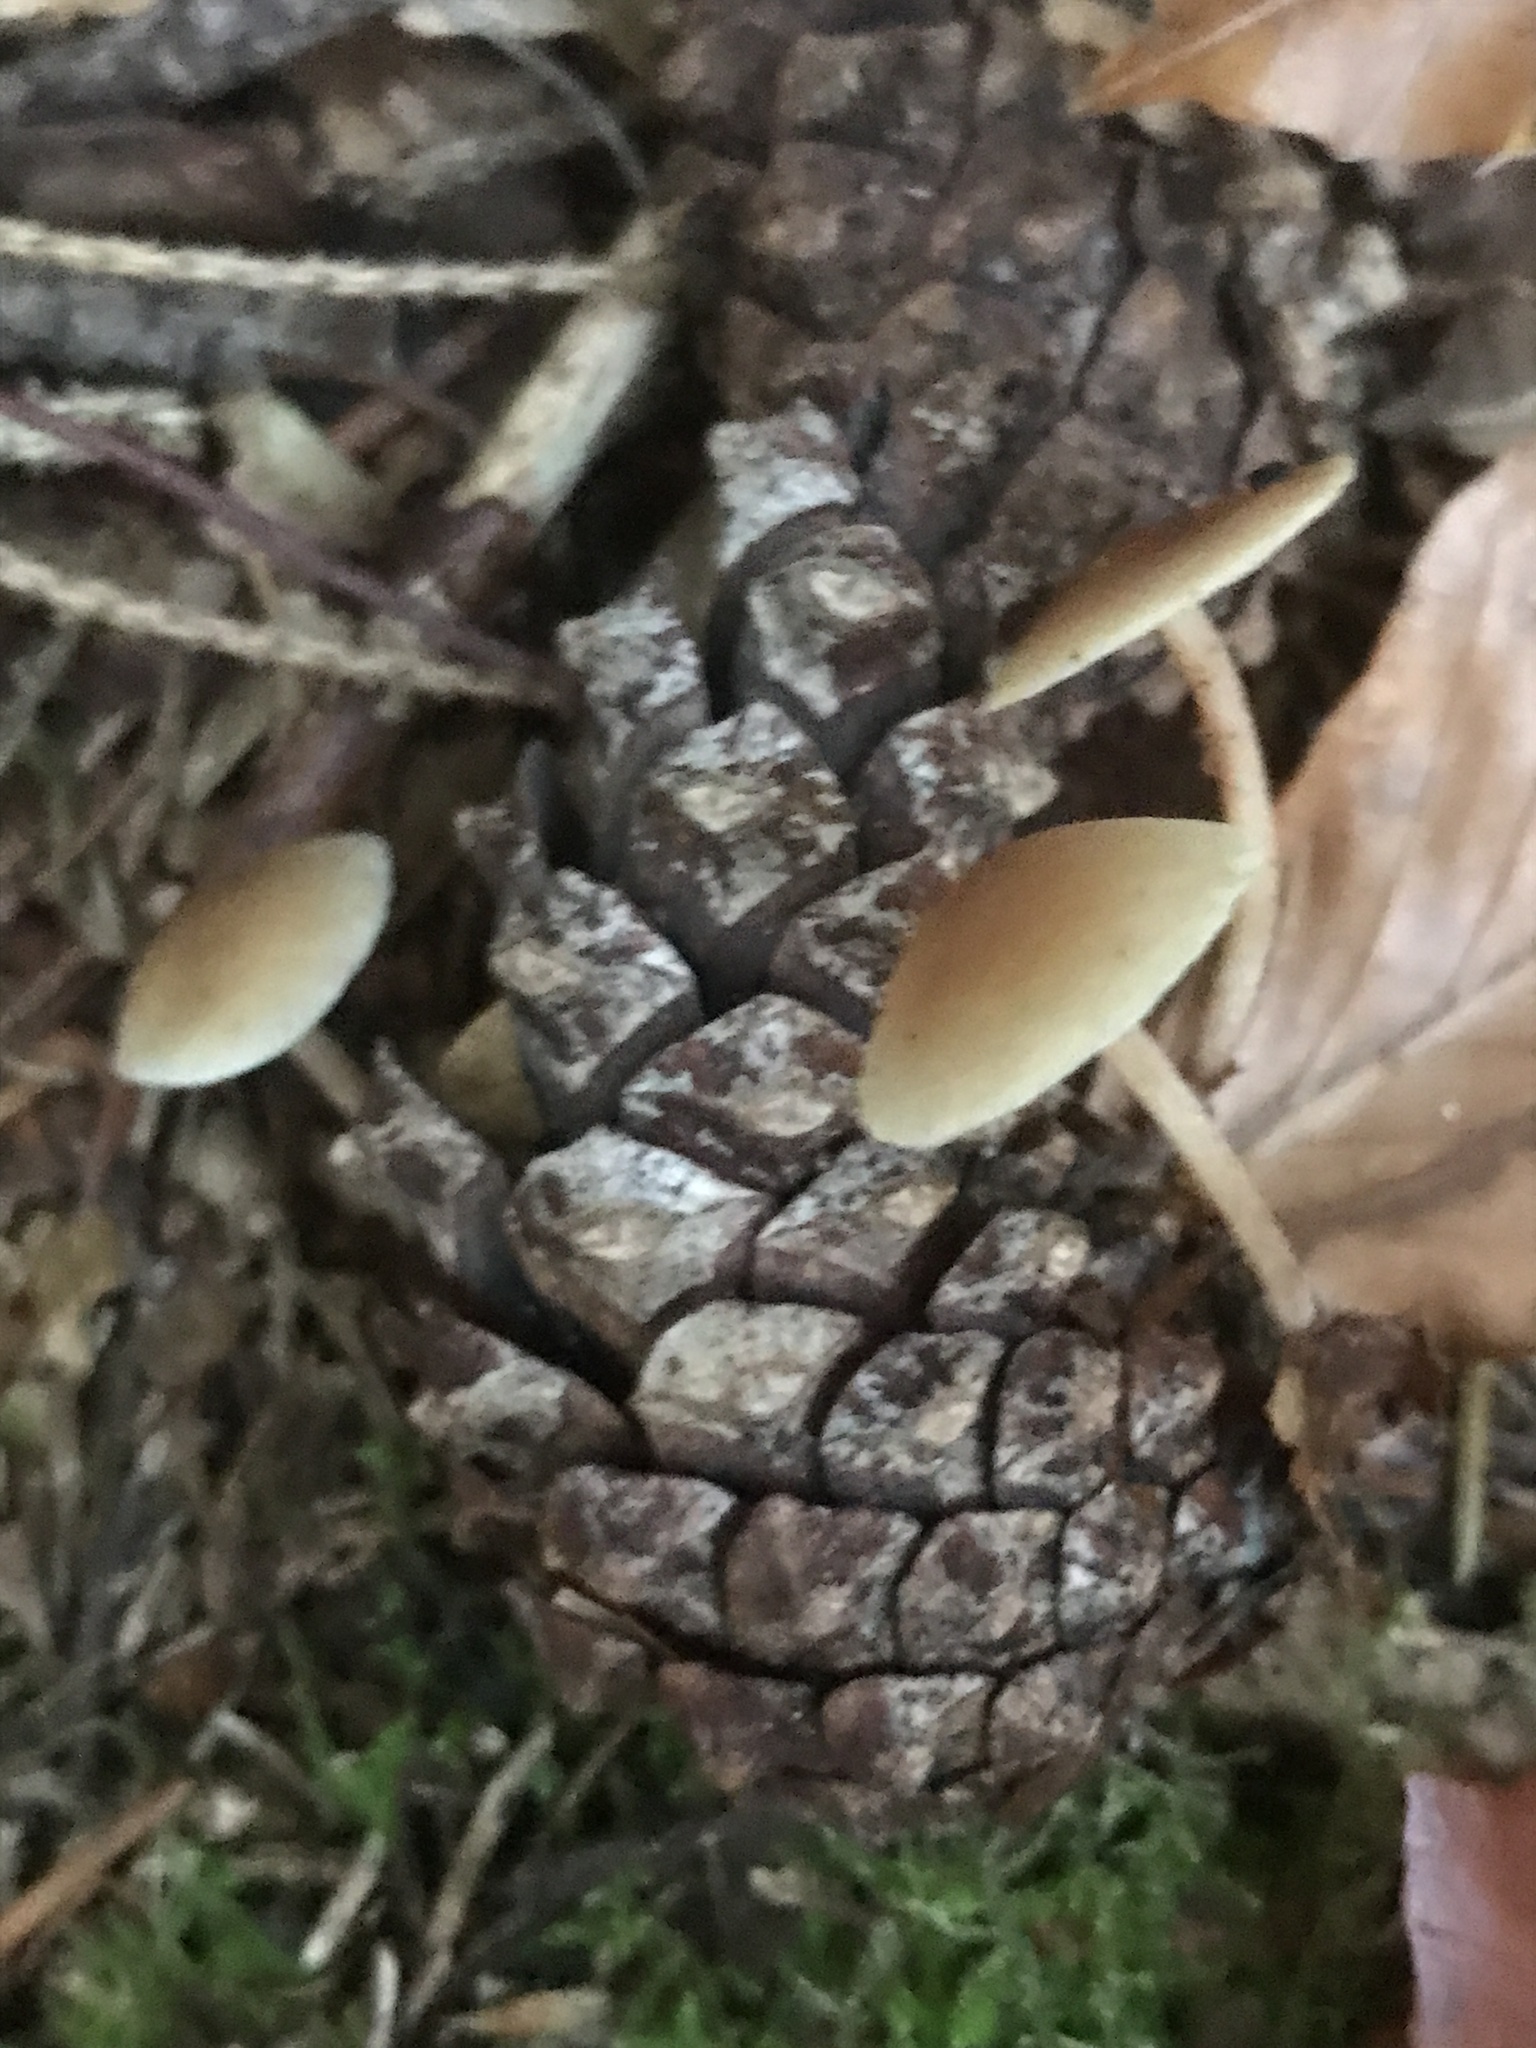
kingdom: Fungi
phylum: Basidiomycota
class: Agaricomycetes
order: Agaricales
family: Marasmiaceae
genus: Baeospora
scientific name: Baeospora myosura
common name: Conifercone cap
